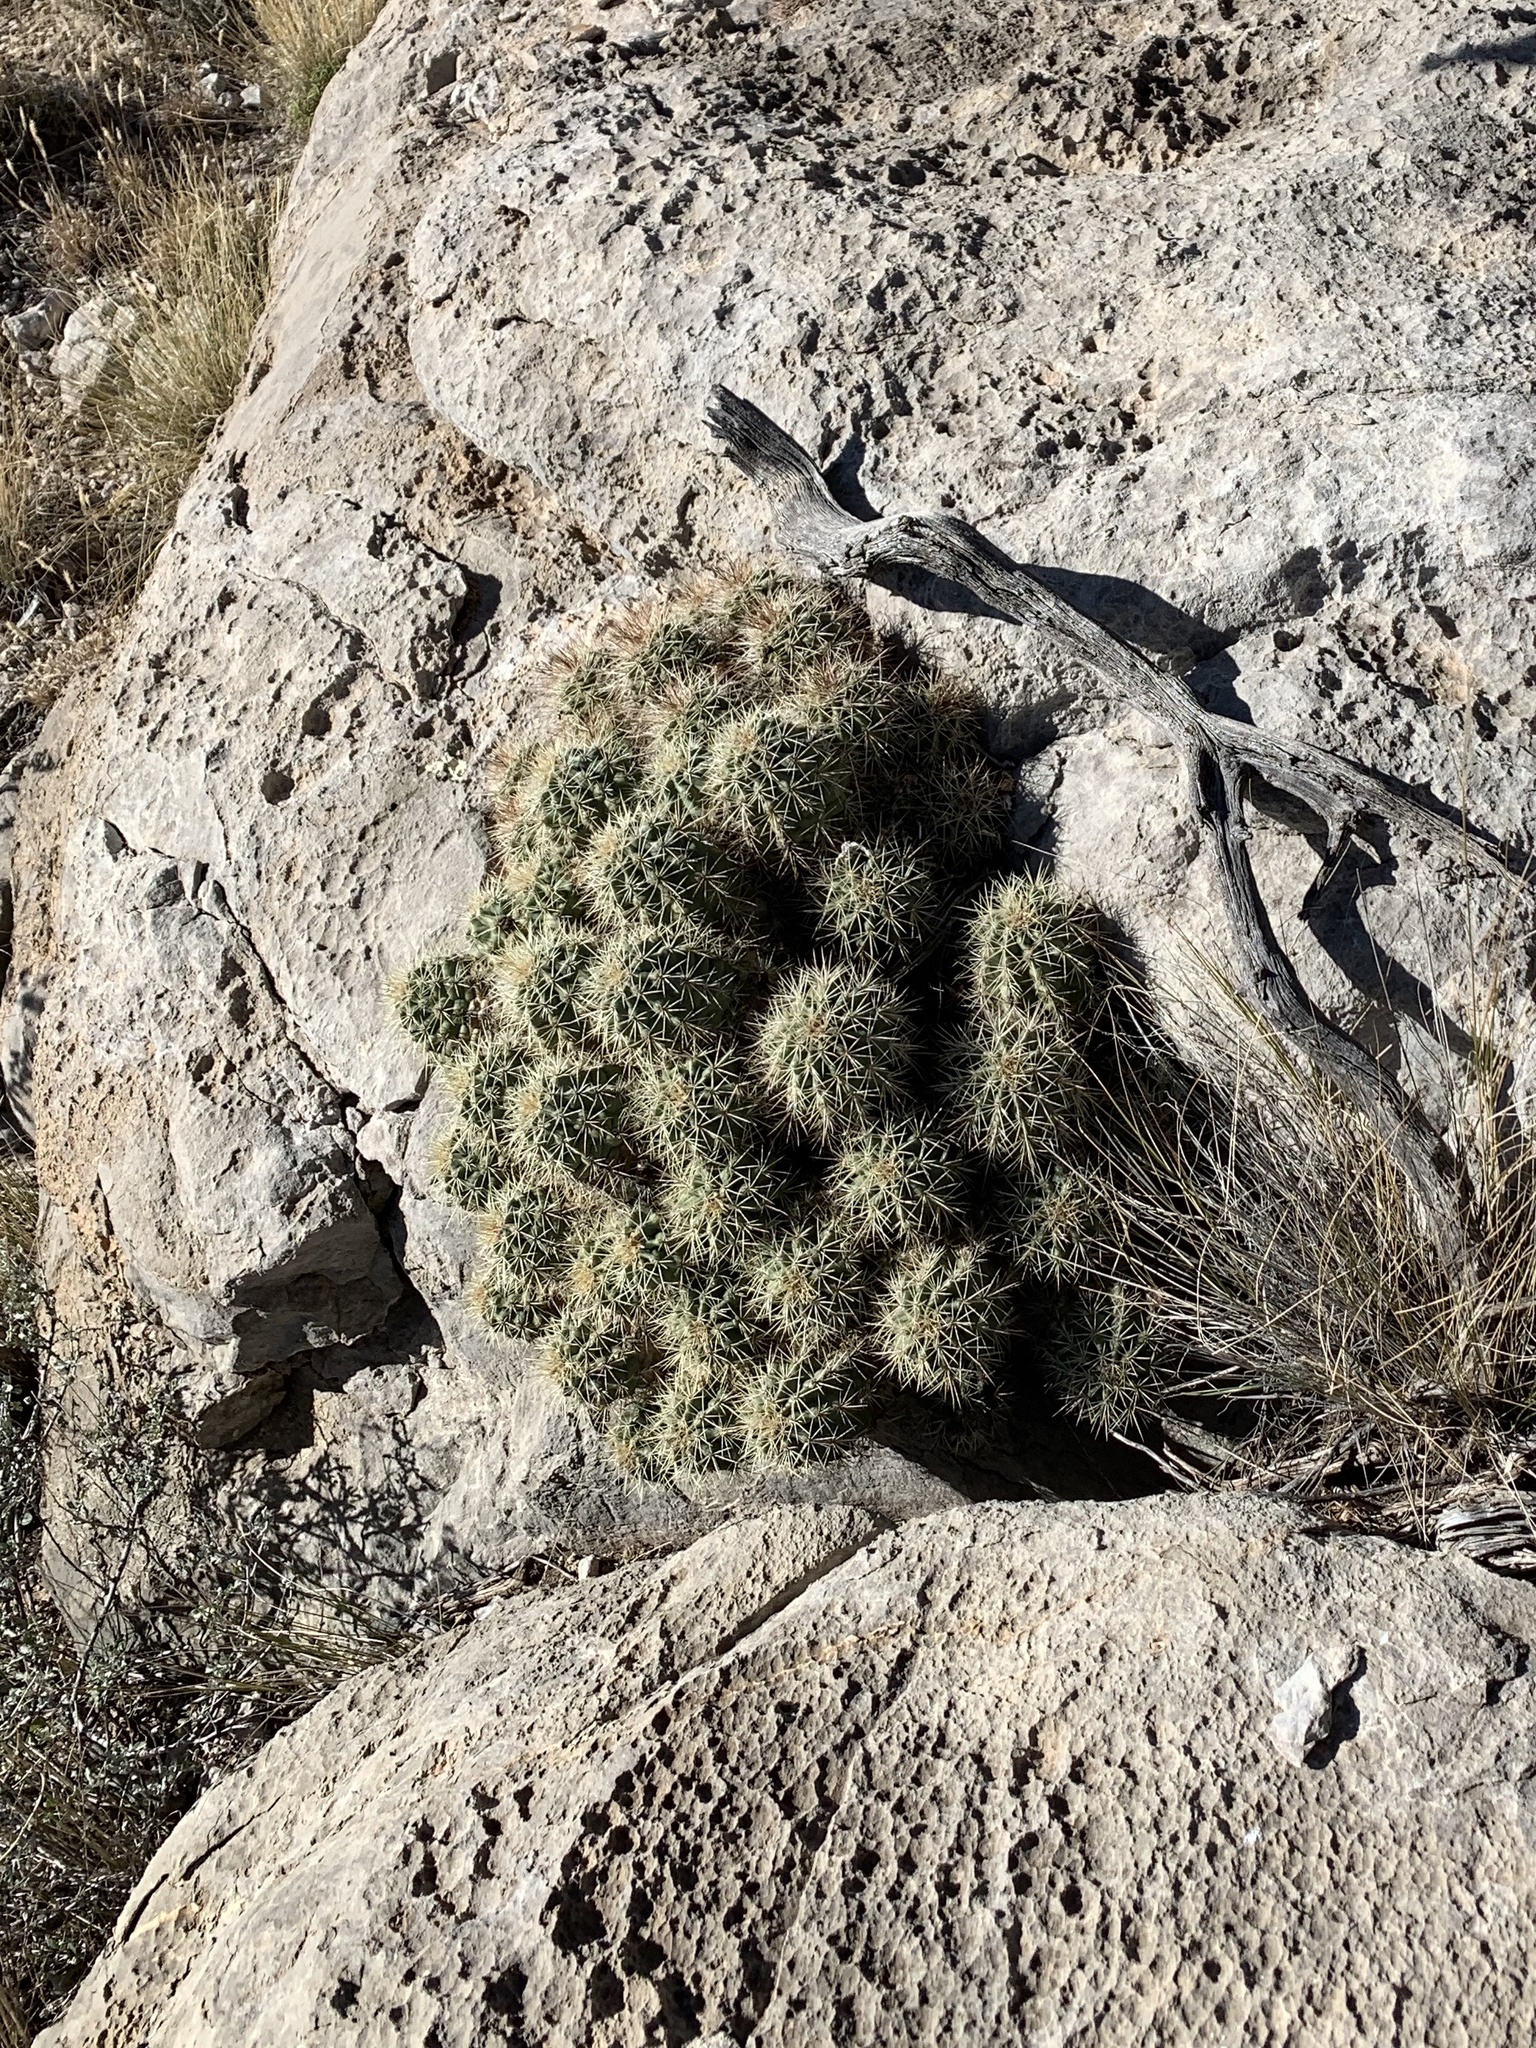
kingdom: Plantae
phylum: Tracheophyta
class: Magnoliopsida
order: Caryophyllales
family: Cactaceae
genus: Echinocereus
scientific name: Echinocereus coccineus
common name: Scarlet hedgehog cactus
